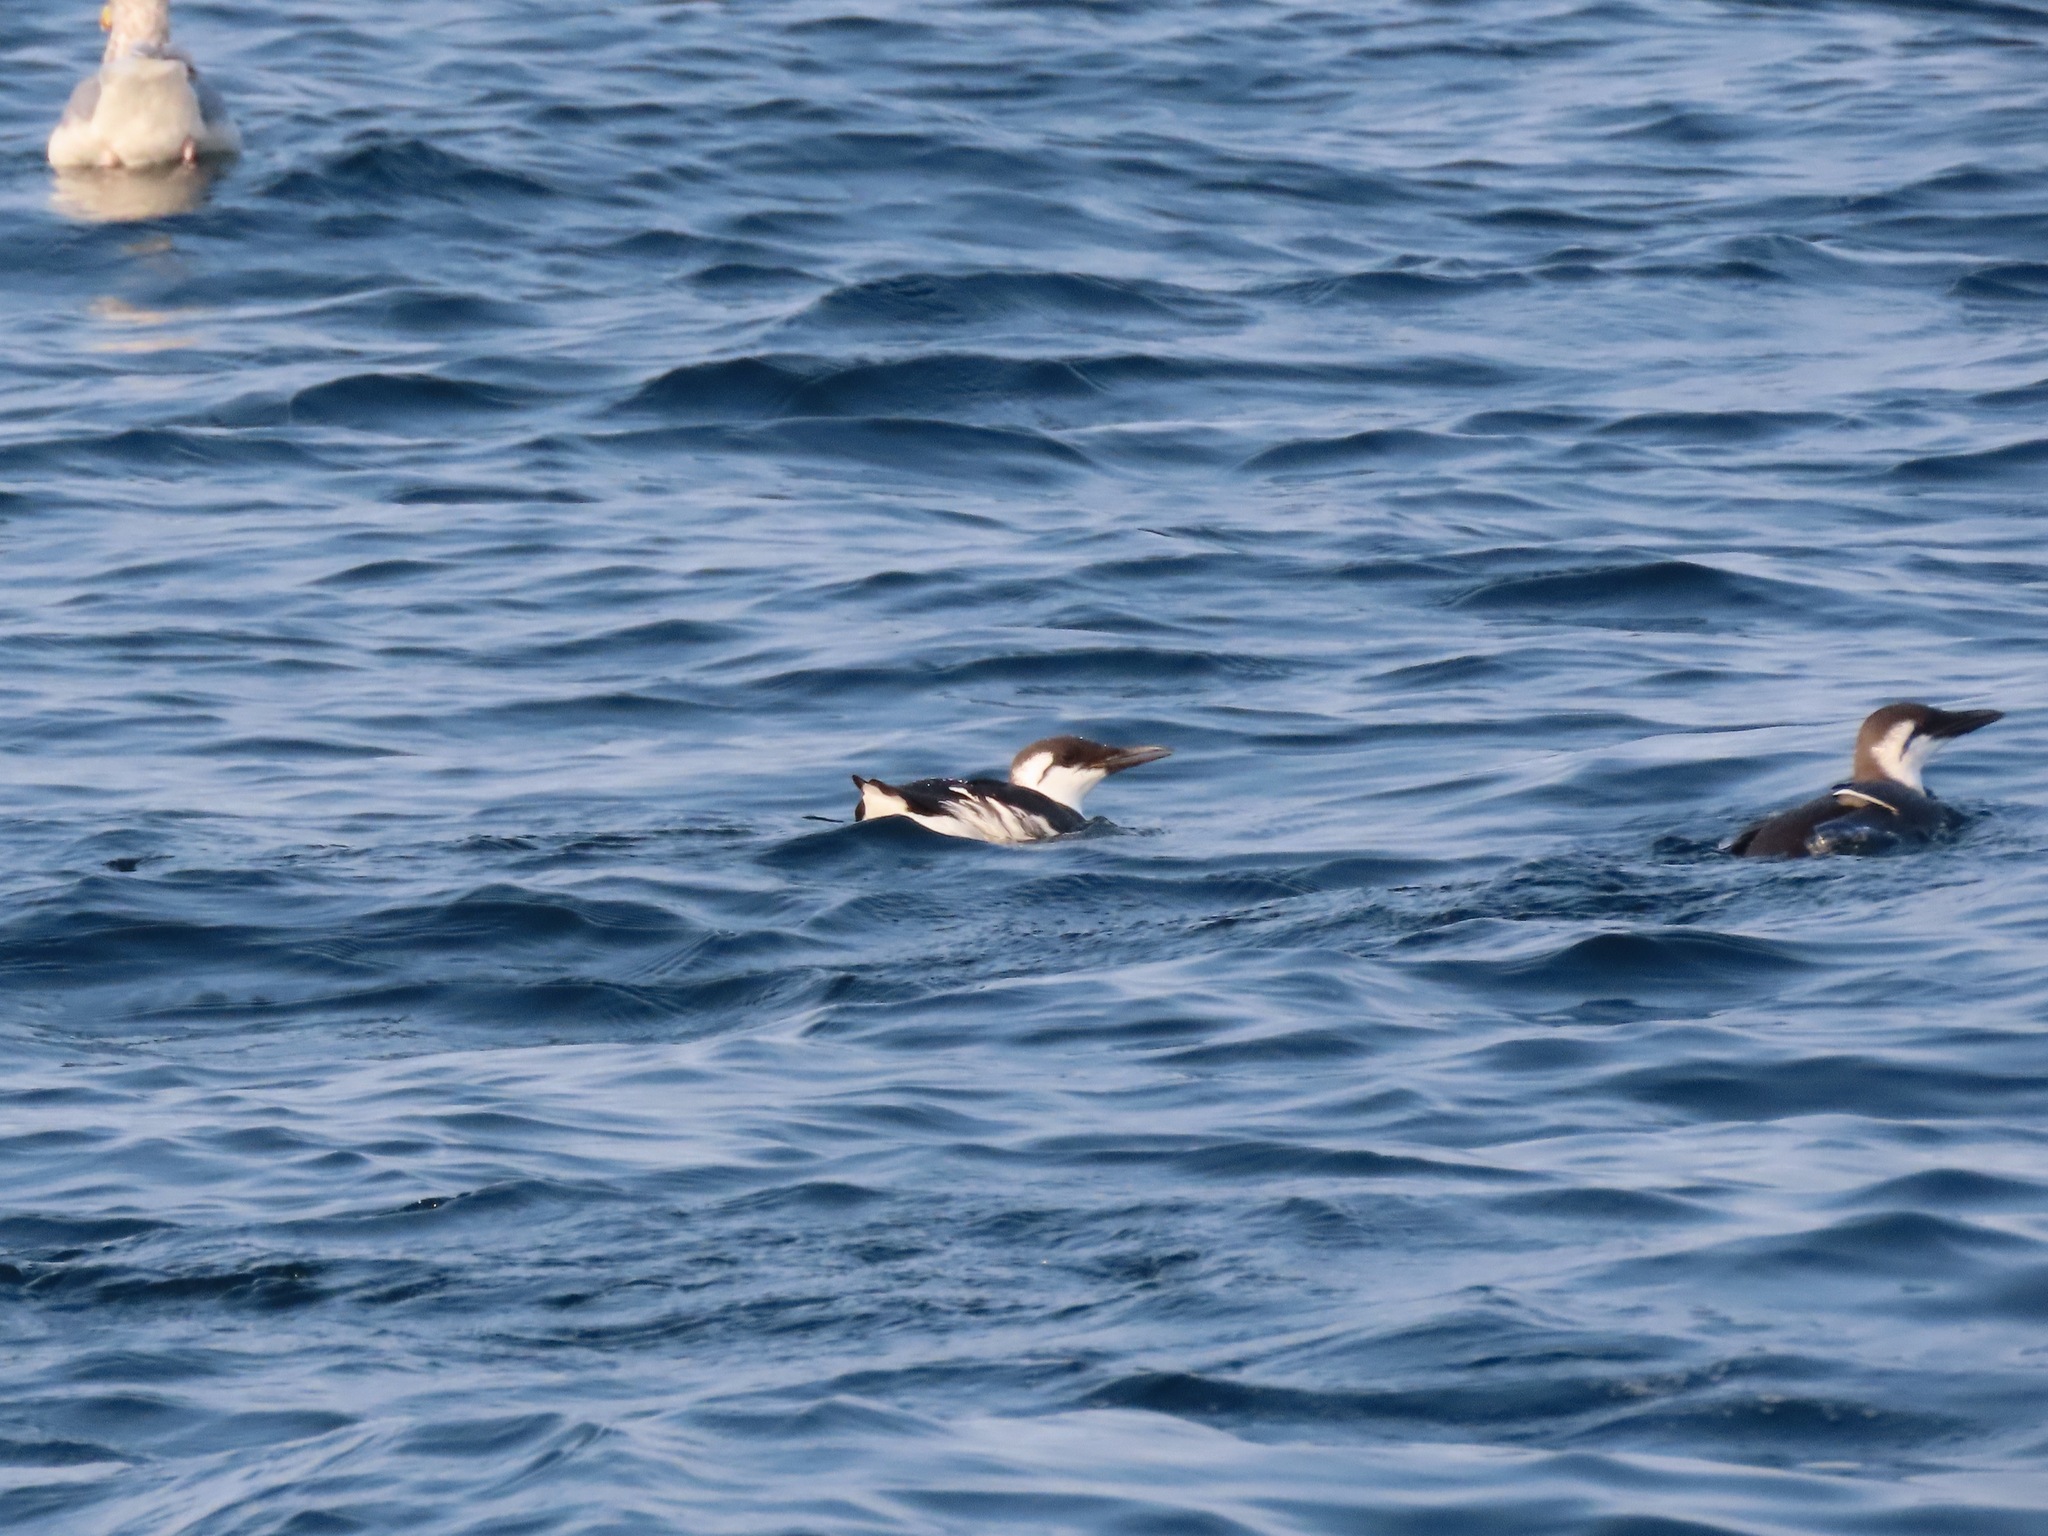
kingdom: Animalia
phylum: Chordata
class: Aves
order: Charadriiformes
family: Alcidae
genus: Uria
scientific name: Uria aalge
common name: Common murre
